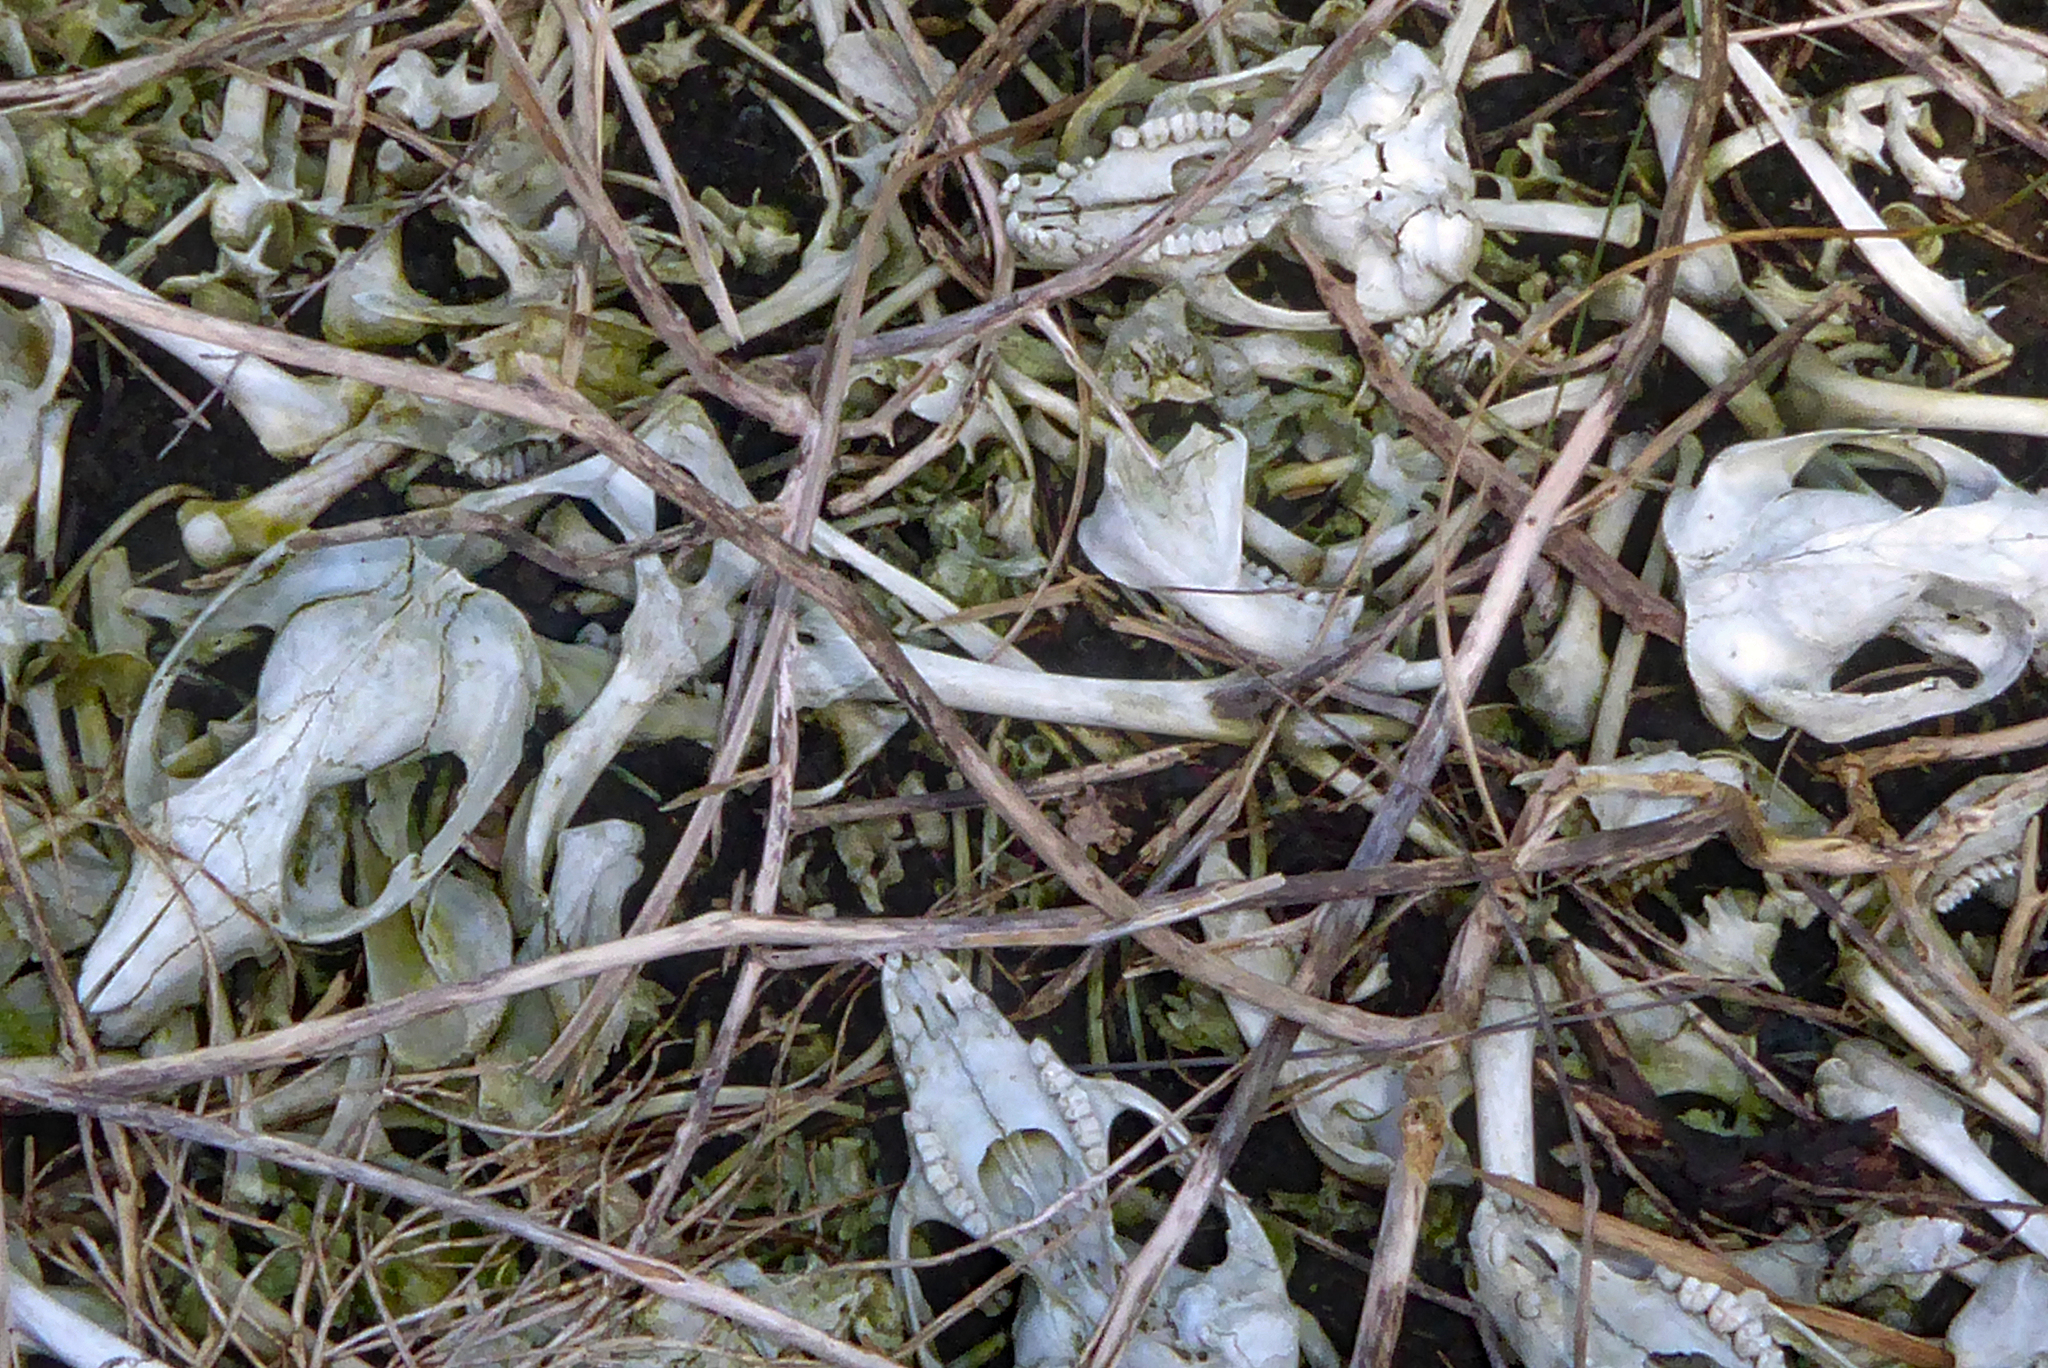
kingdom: Animalia
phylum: Chordata
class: Mammalia
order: Diprotodontia
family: Phalangeridae
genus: Trichosurus
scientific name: Trichosurus vulpecula
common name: Common brushtail
